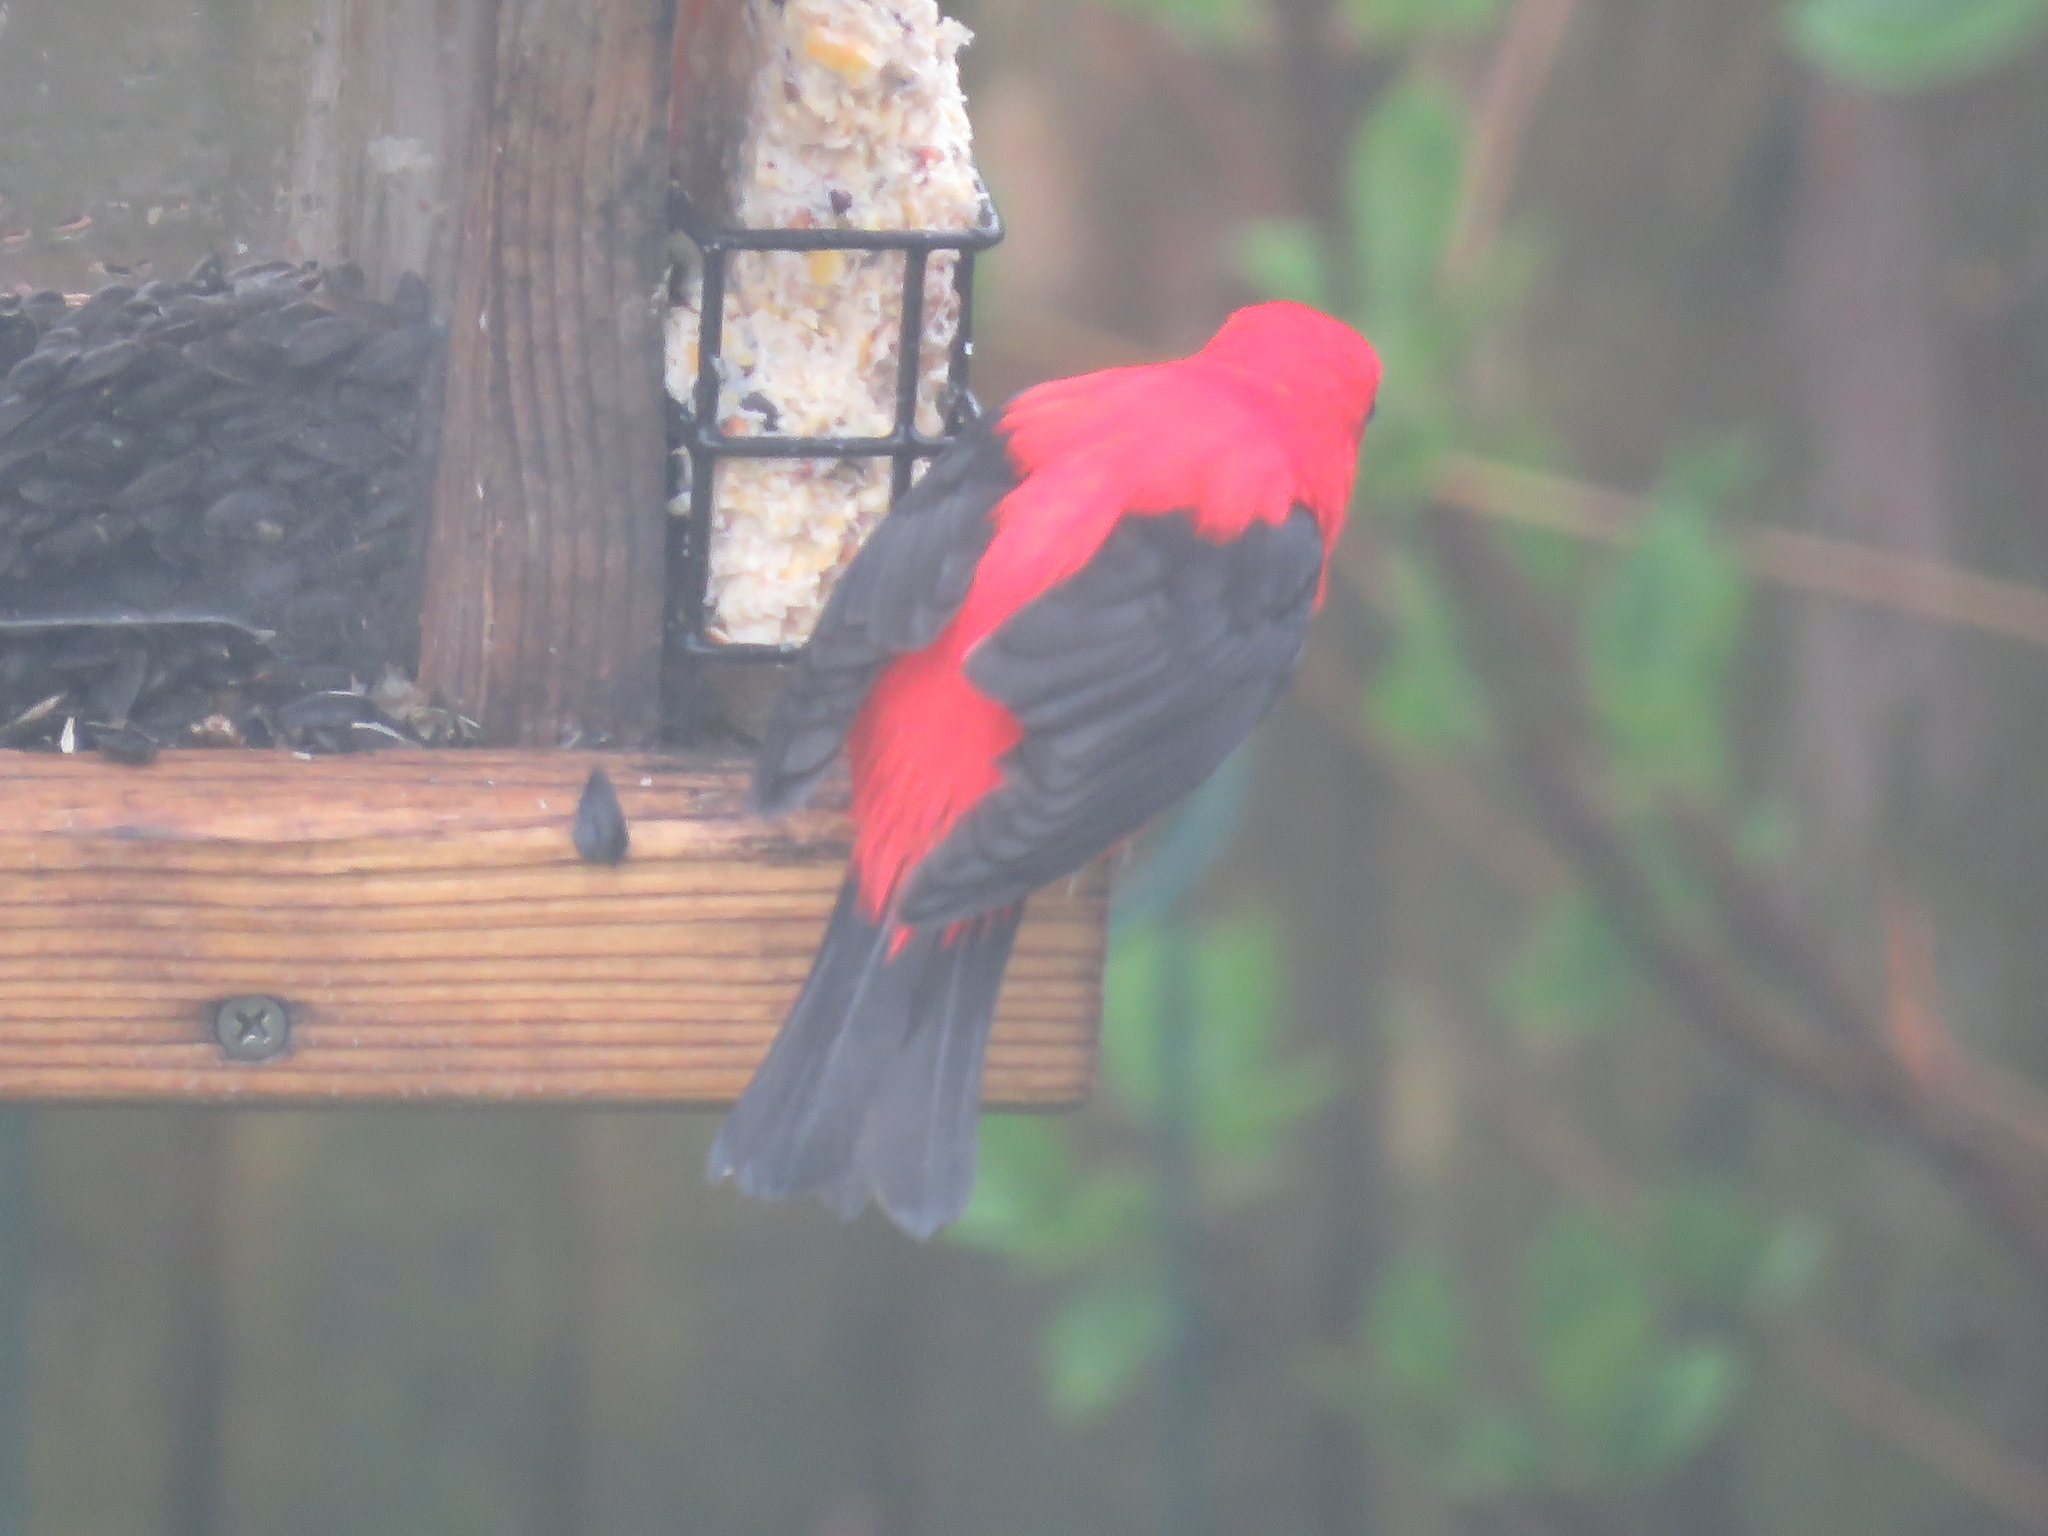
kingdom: Animalia
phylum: Chordata
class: Aves
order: Passeriformes
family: Cardinalidae
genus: Piranga
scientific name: Piranga olivacea
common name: Scarlet tanager
